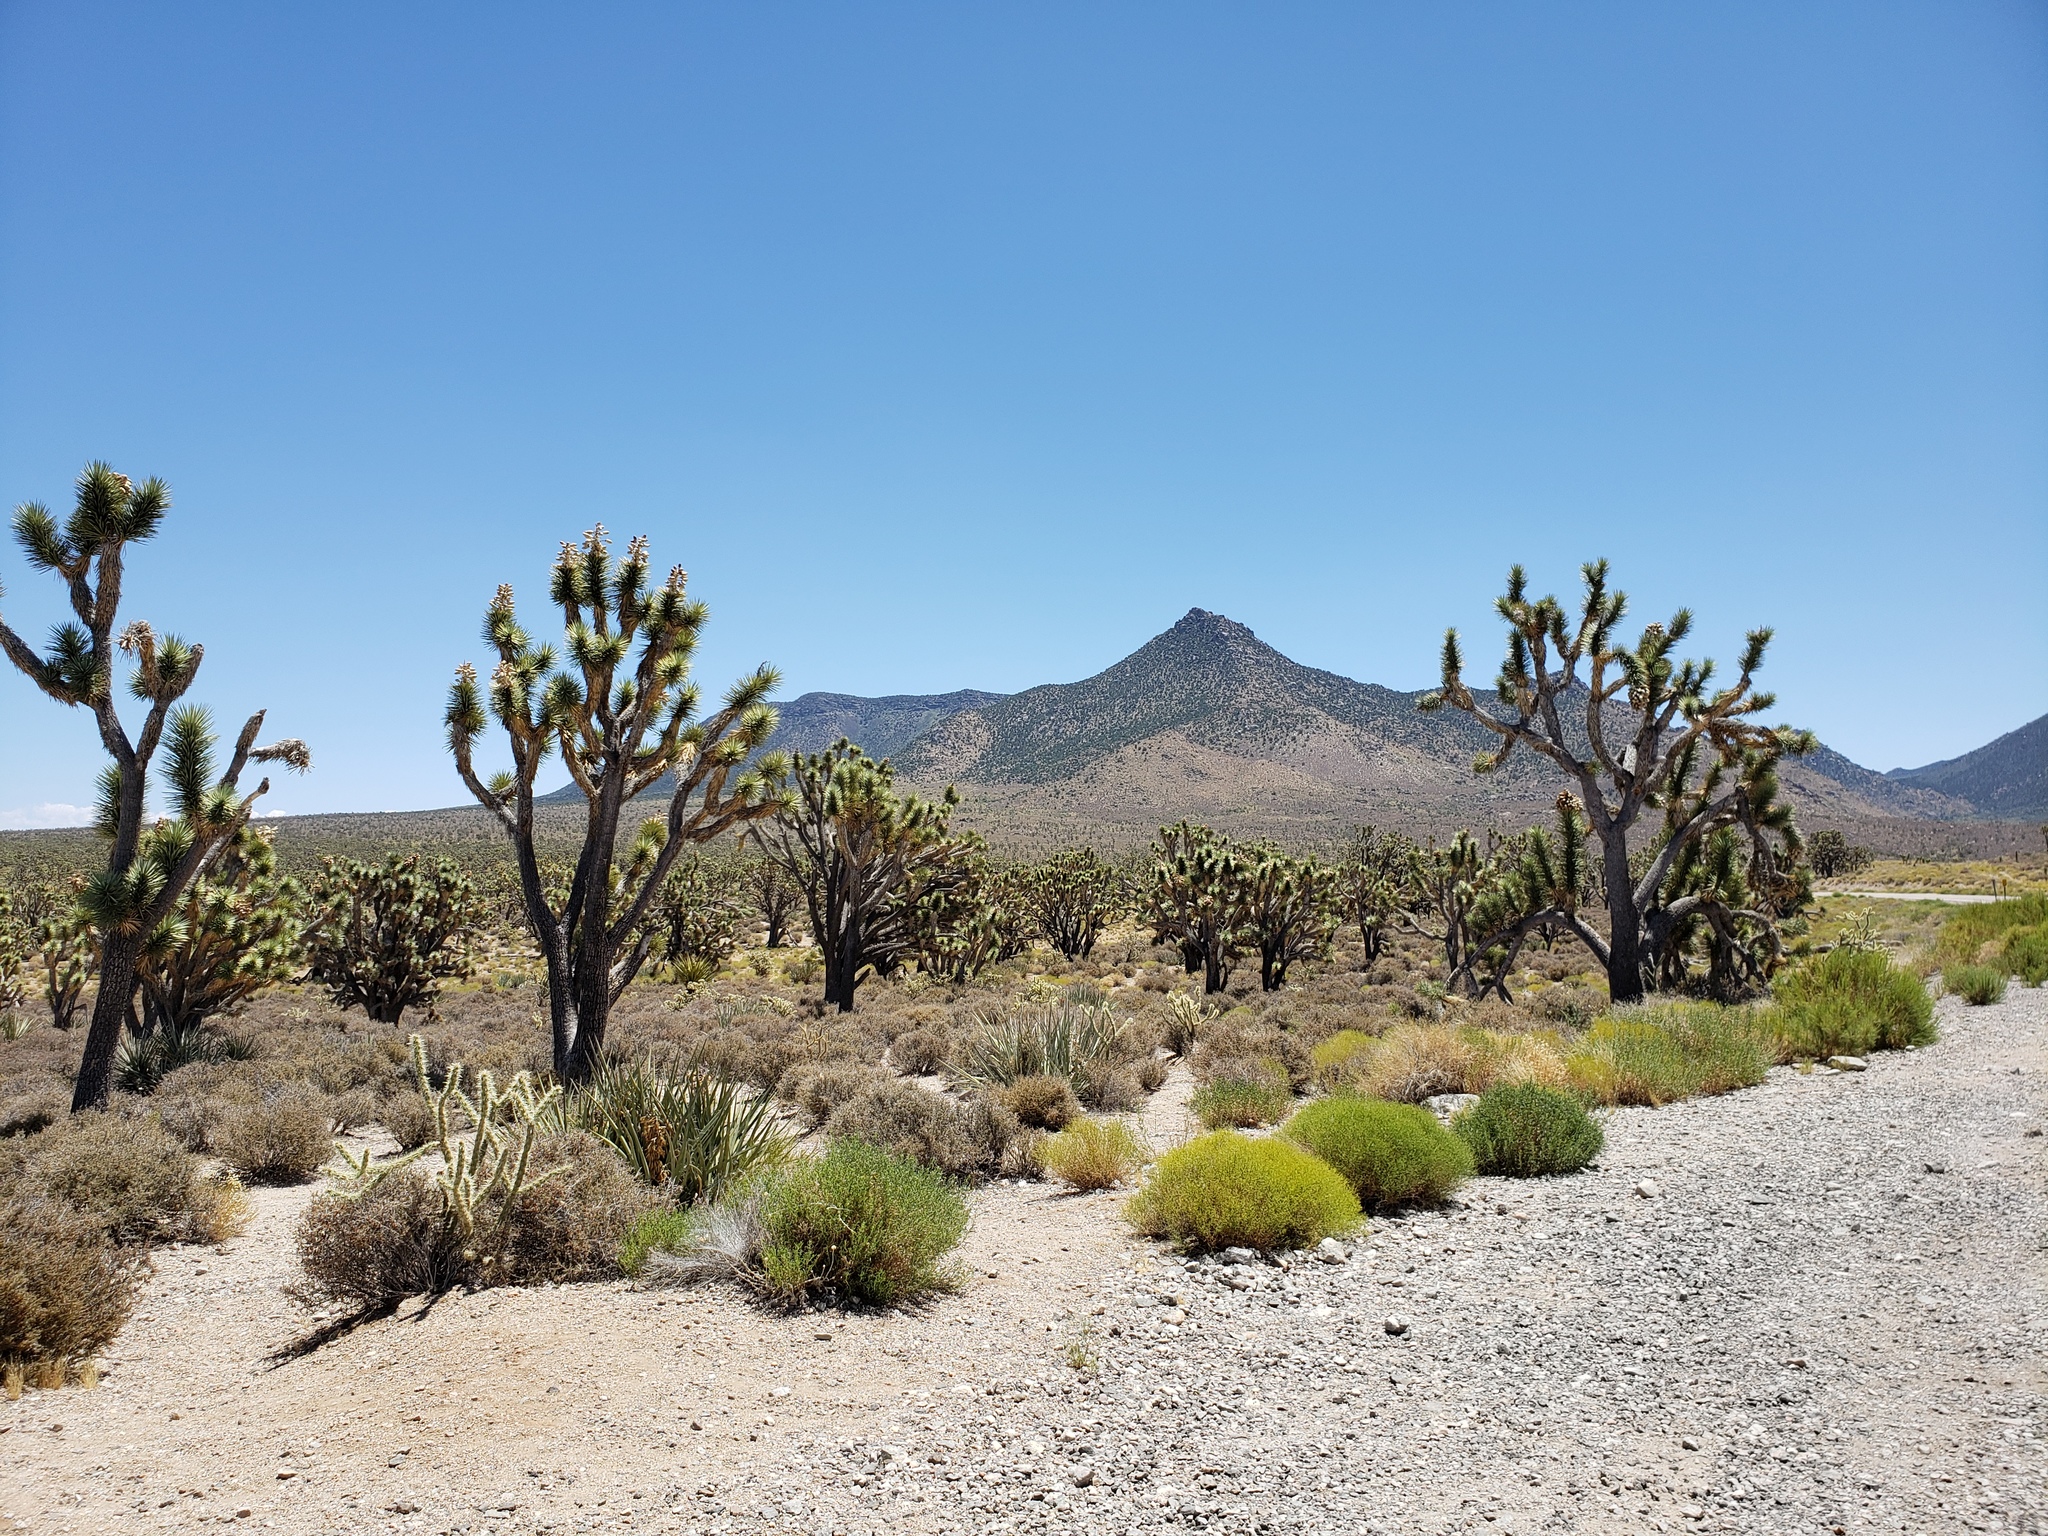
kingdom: Plantae
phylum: Tracheophyta
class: Liliopsida
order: Asparagales
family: Asparagaceae
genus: Yucca
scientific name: Yucca brevifolia
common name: Joshua tree
